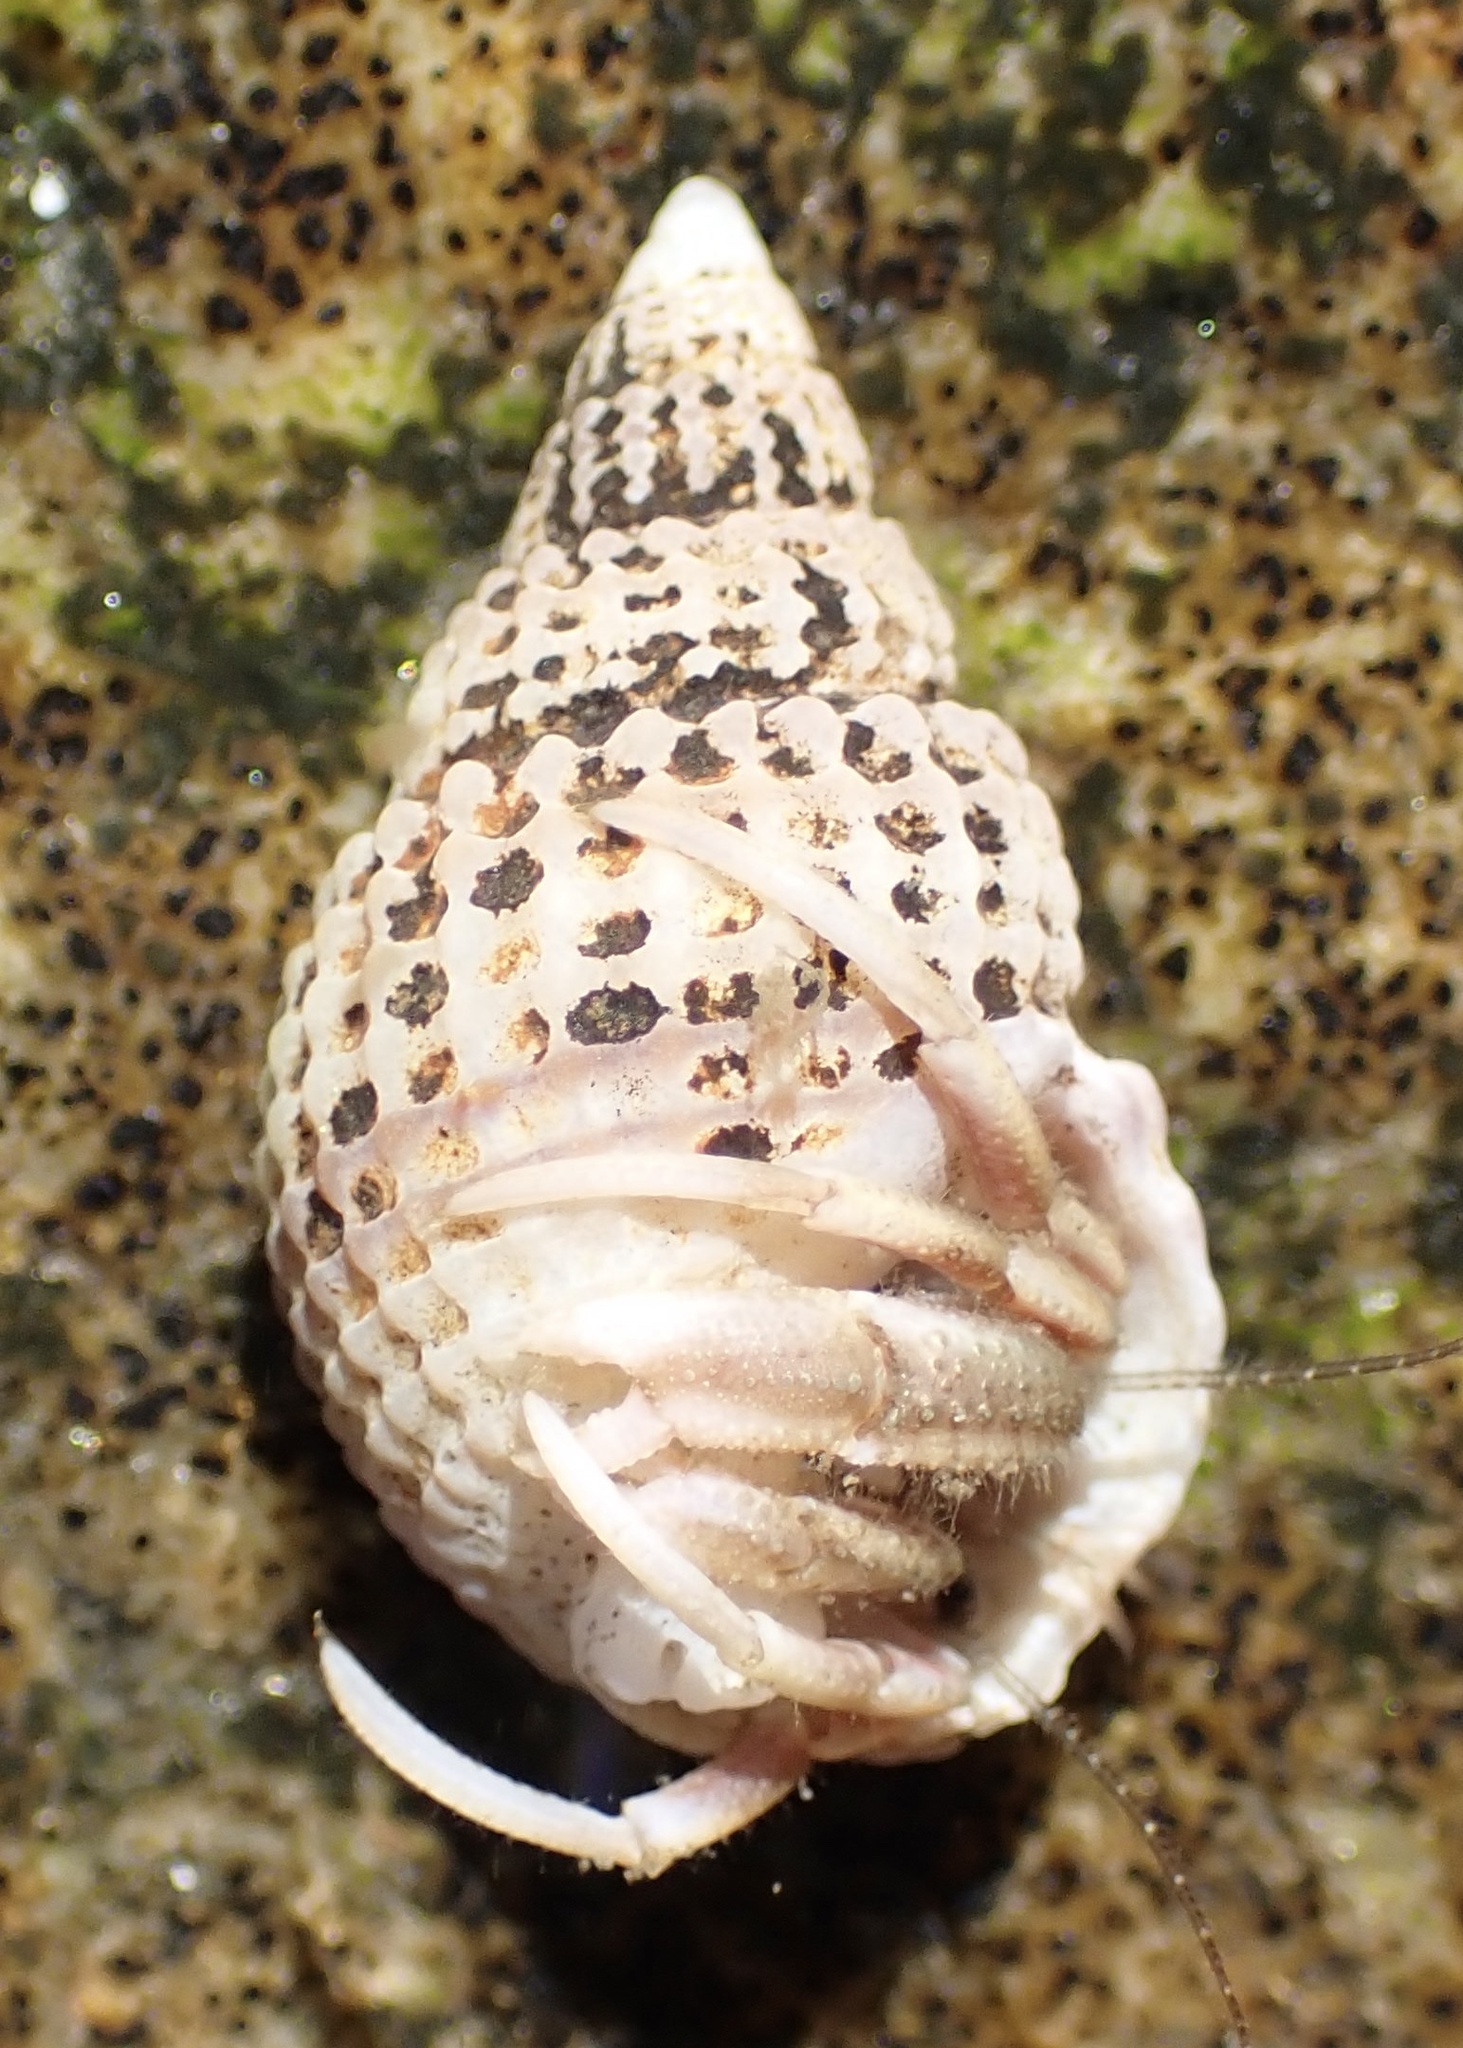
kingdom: Animalia
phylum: Mollusca
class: Gastropoda
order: Neogastropoda
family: Nassariidae
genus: Ilyanassa
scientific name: Ilyanassa trivittata
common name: Three-line mudsnail
